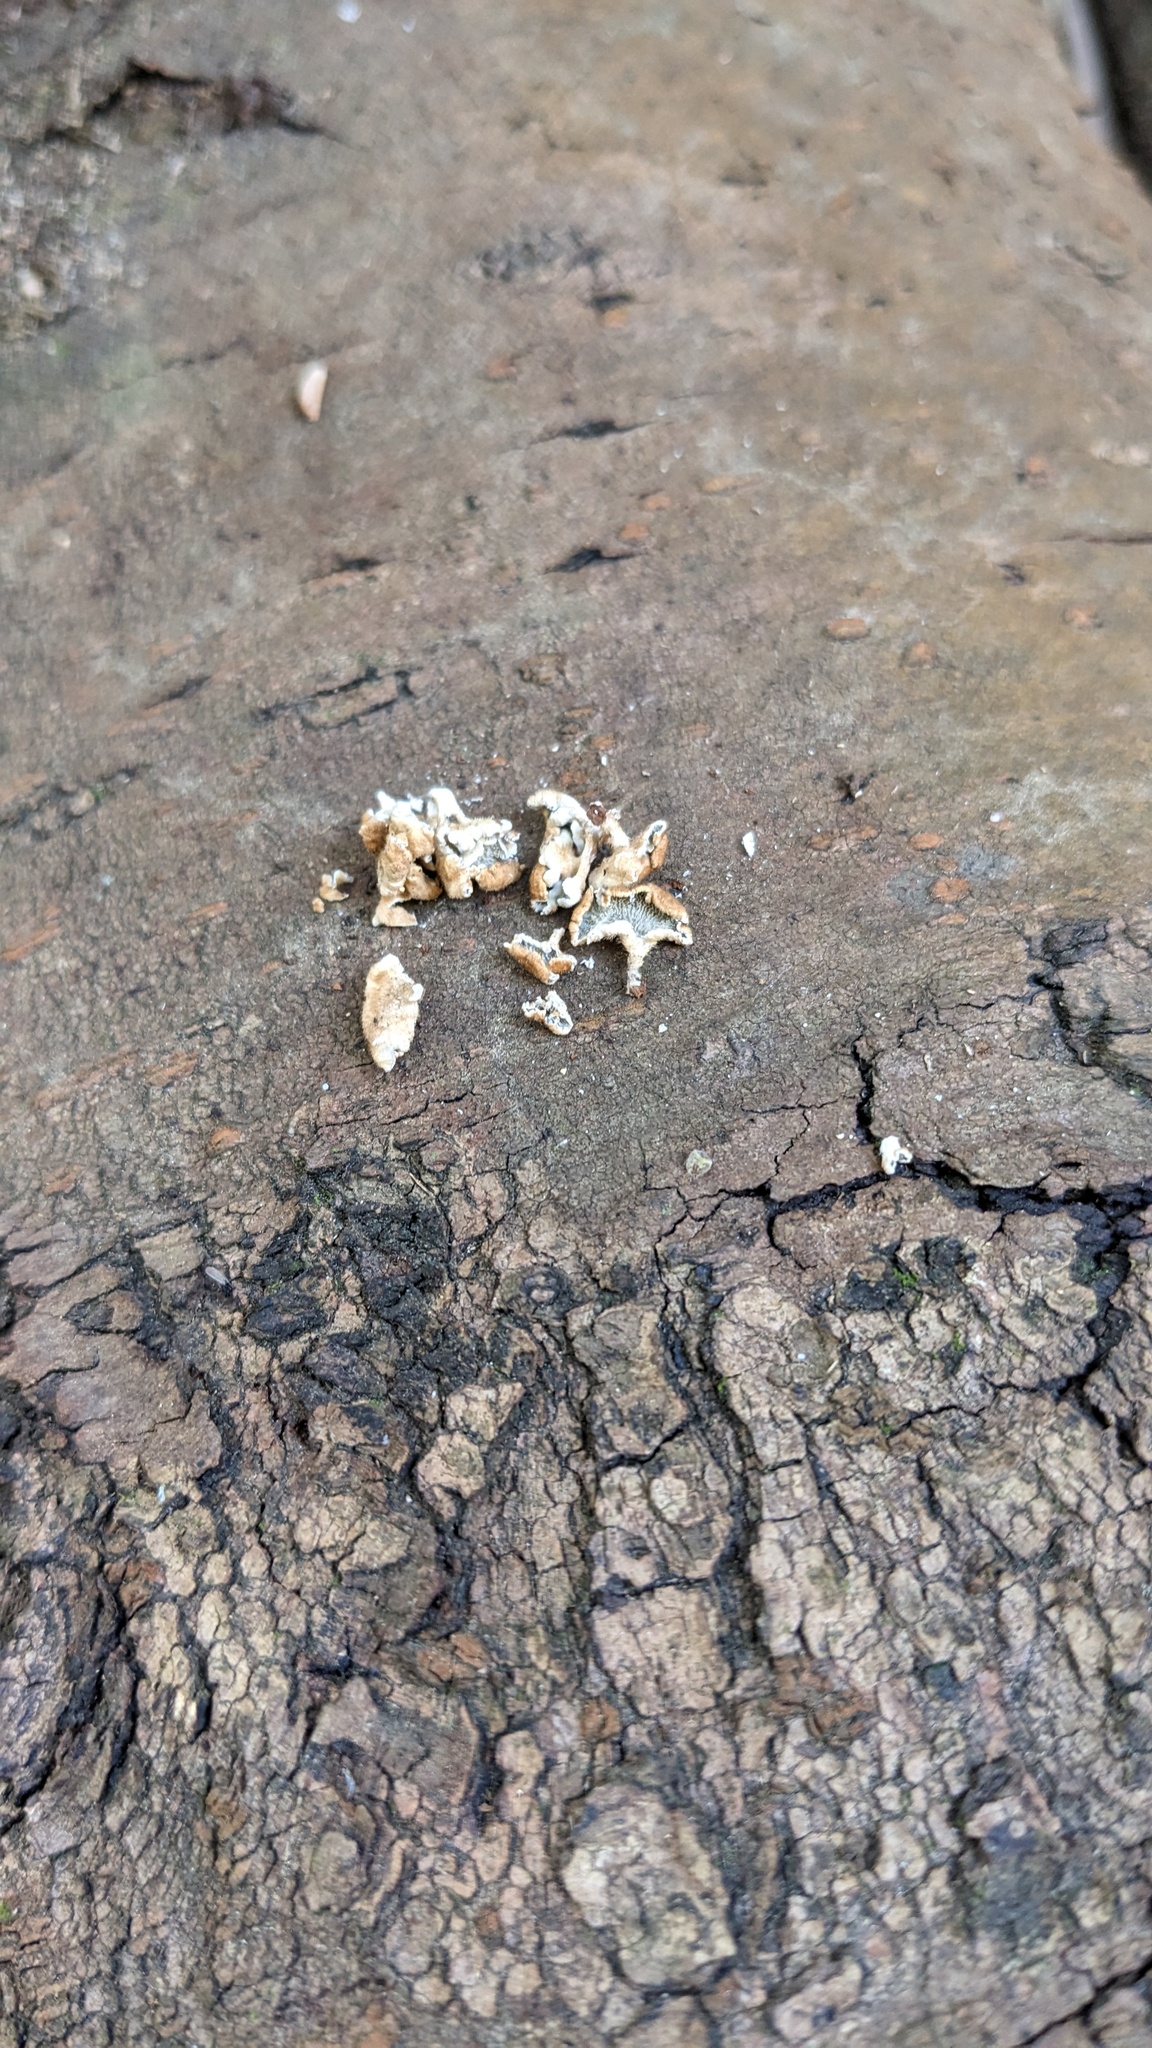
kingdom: Fungi
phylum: Basidiomycota
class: Agaricomycetes
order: Amylocorticiales
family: Amylocorticiaceae
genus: Plicaturopsis
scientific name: Plicaturopsis crispa
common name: Crimped gill
